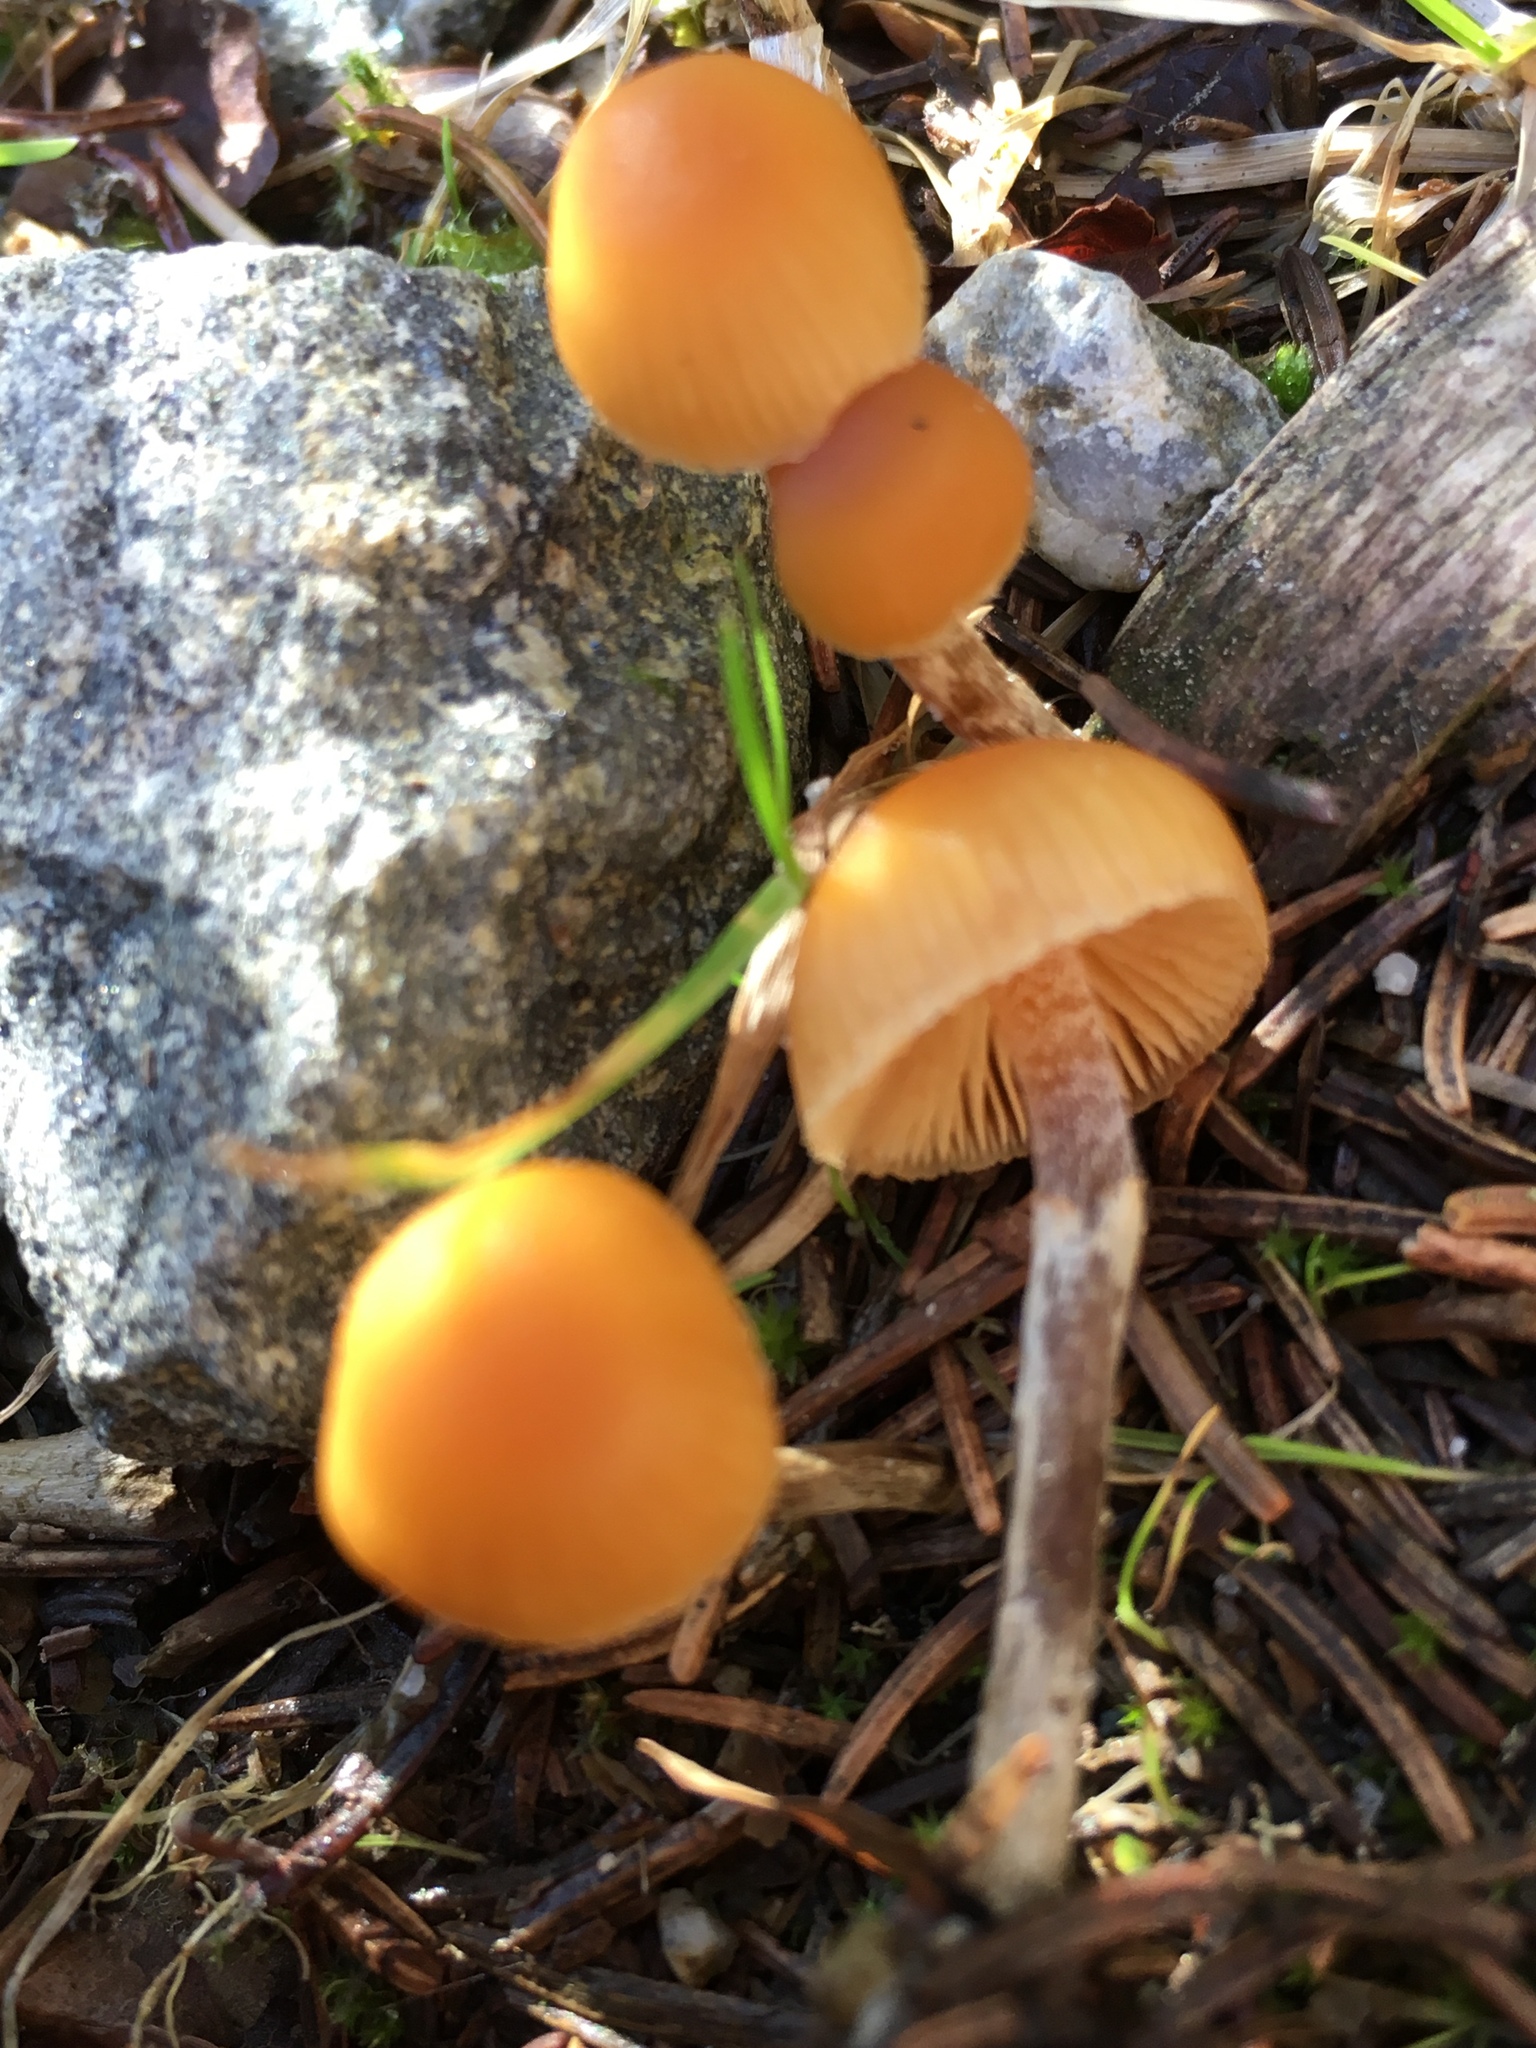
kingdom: Fungi
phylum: Basidiomycota
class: Agaricomycetes
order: Agaricales
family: Hymenogastraceae
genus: Galerina
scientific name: Galerina marginata
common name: Funeral bell
